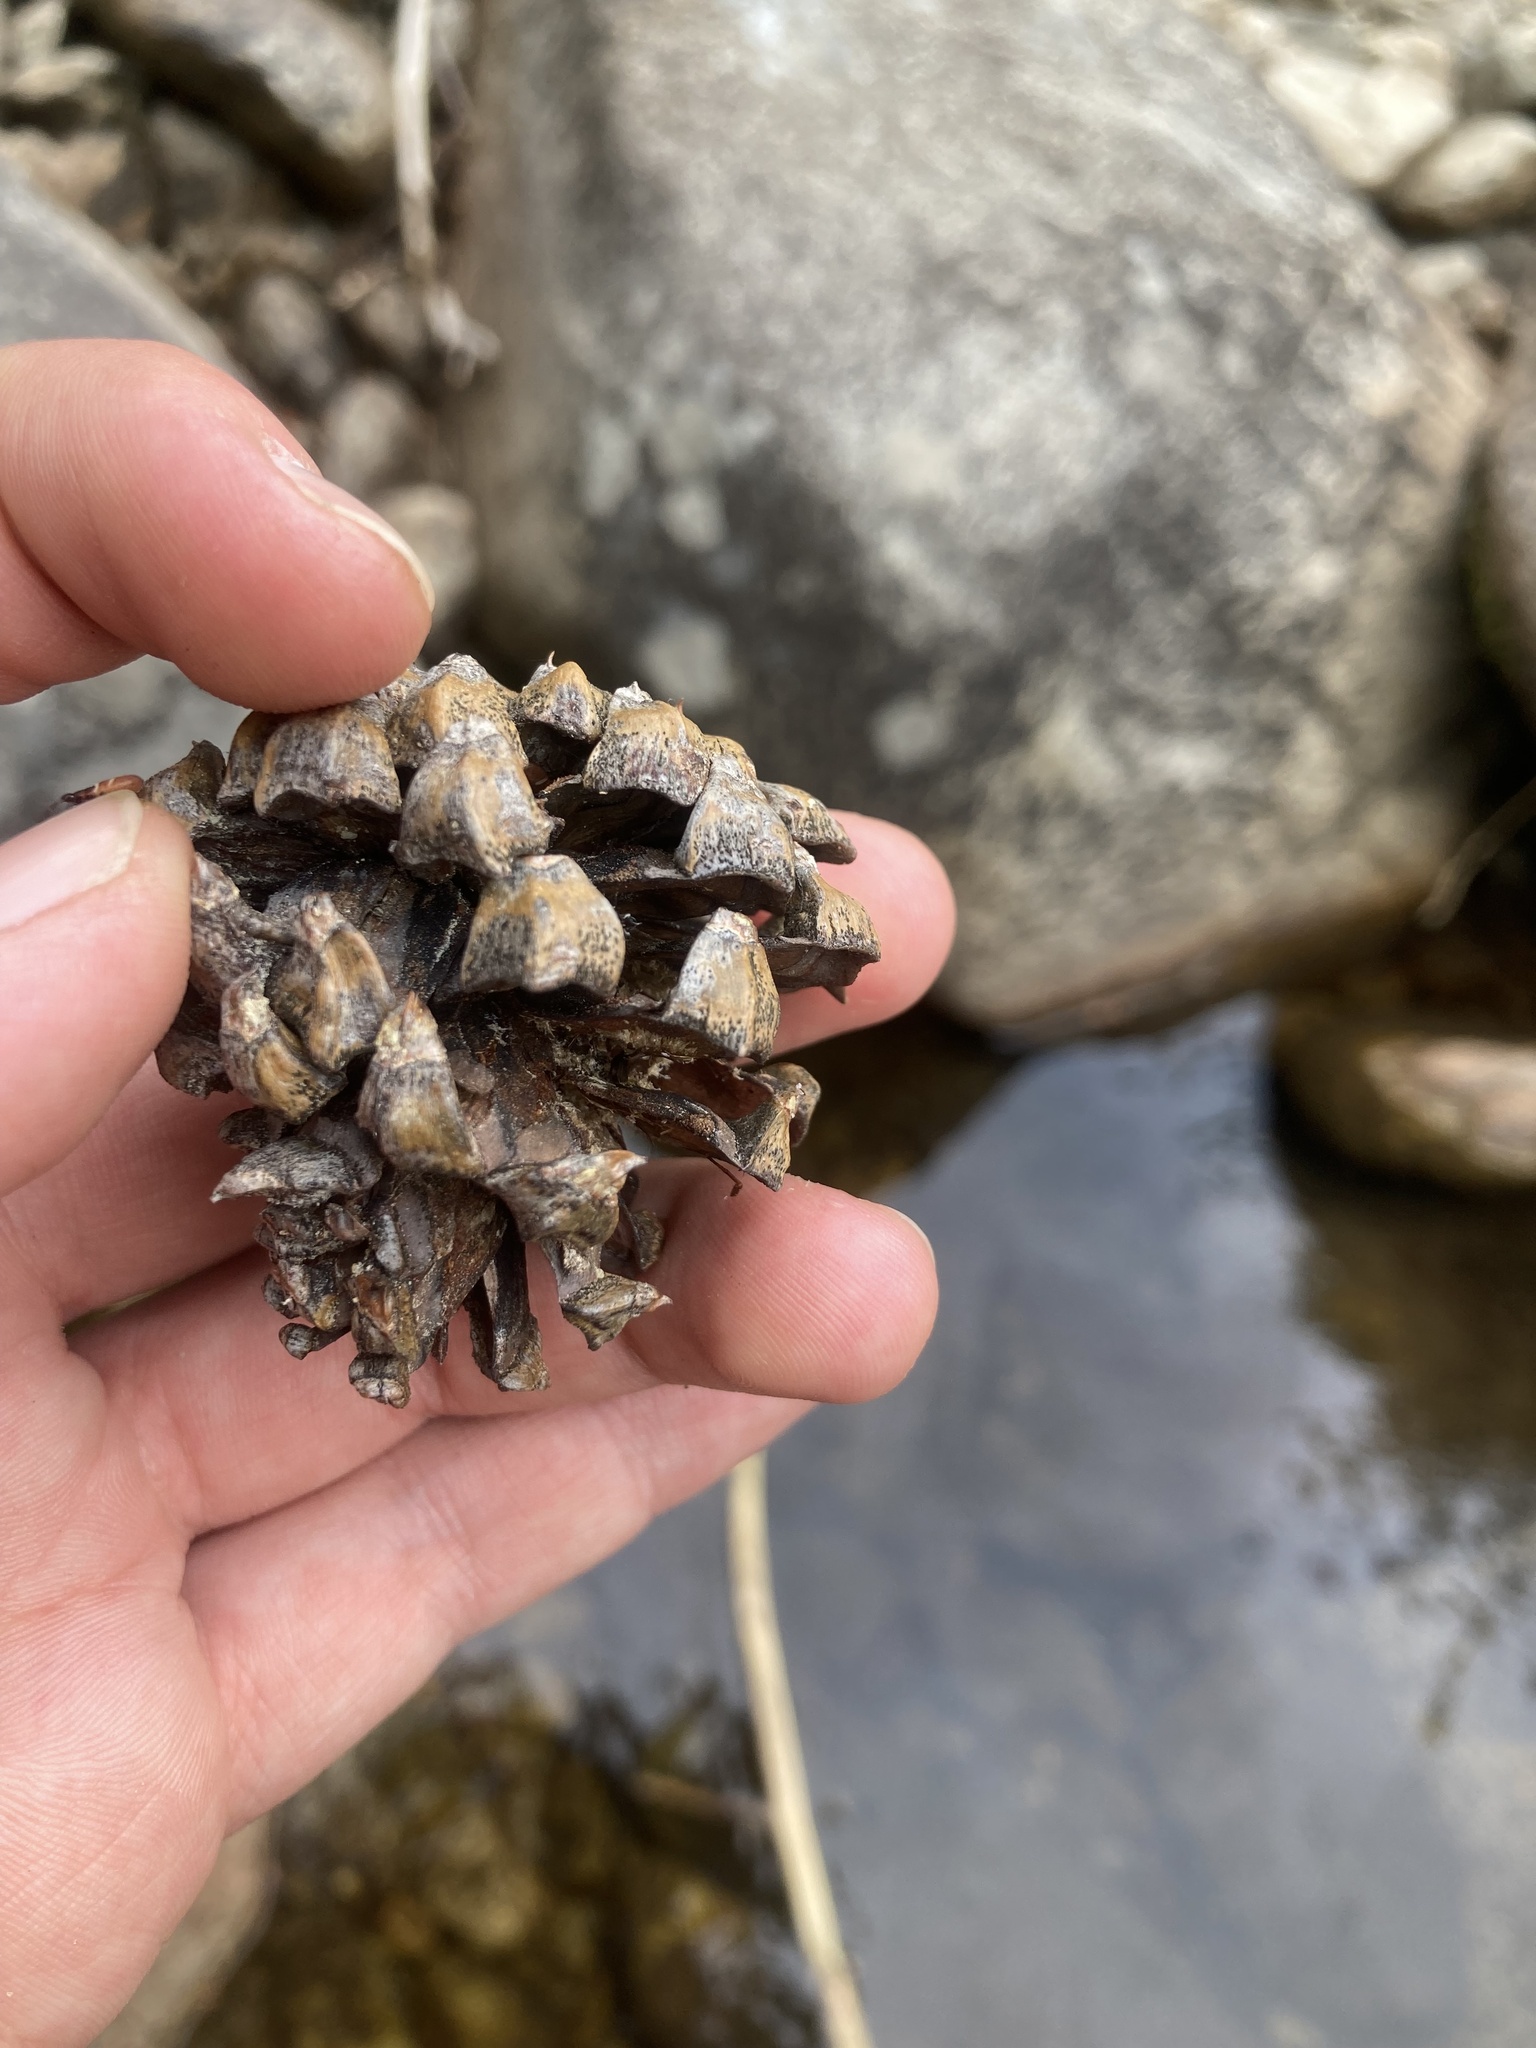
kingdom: Plantae
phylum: Tracheophyta
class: Pinopsida
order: Pinales
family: Pinaceae
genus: Pinus
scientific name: Pinus uncinata
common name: Mountain pine
